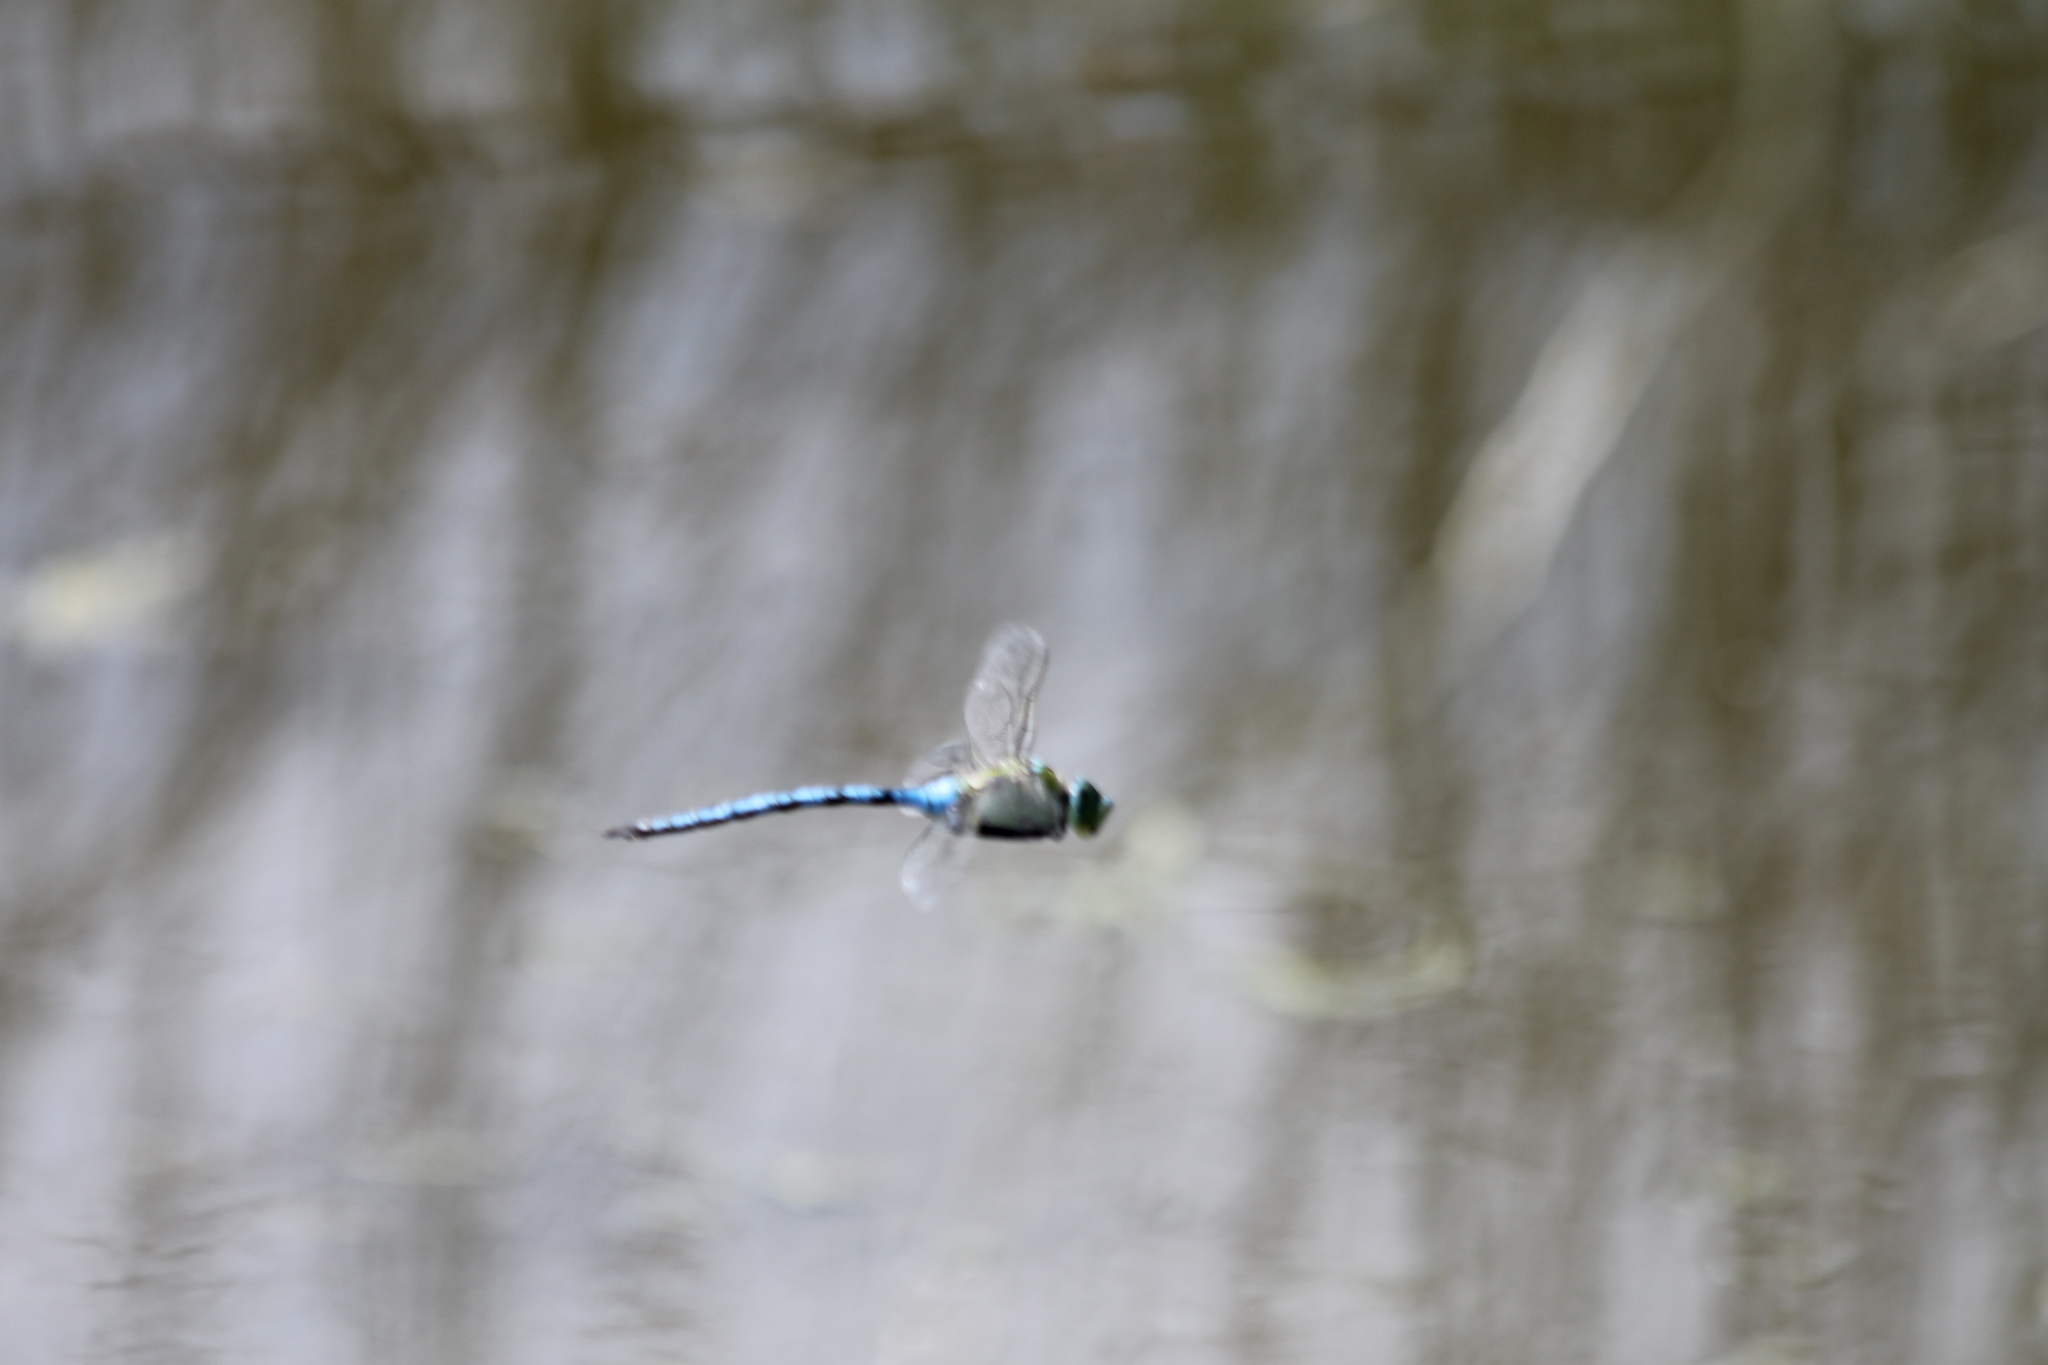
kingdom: Animalia
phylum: Arthropoda
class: Insecta
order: Odonata
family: Aeshnidae
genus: Anax
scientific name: Anax imperator
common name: Emperor dragonfly
